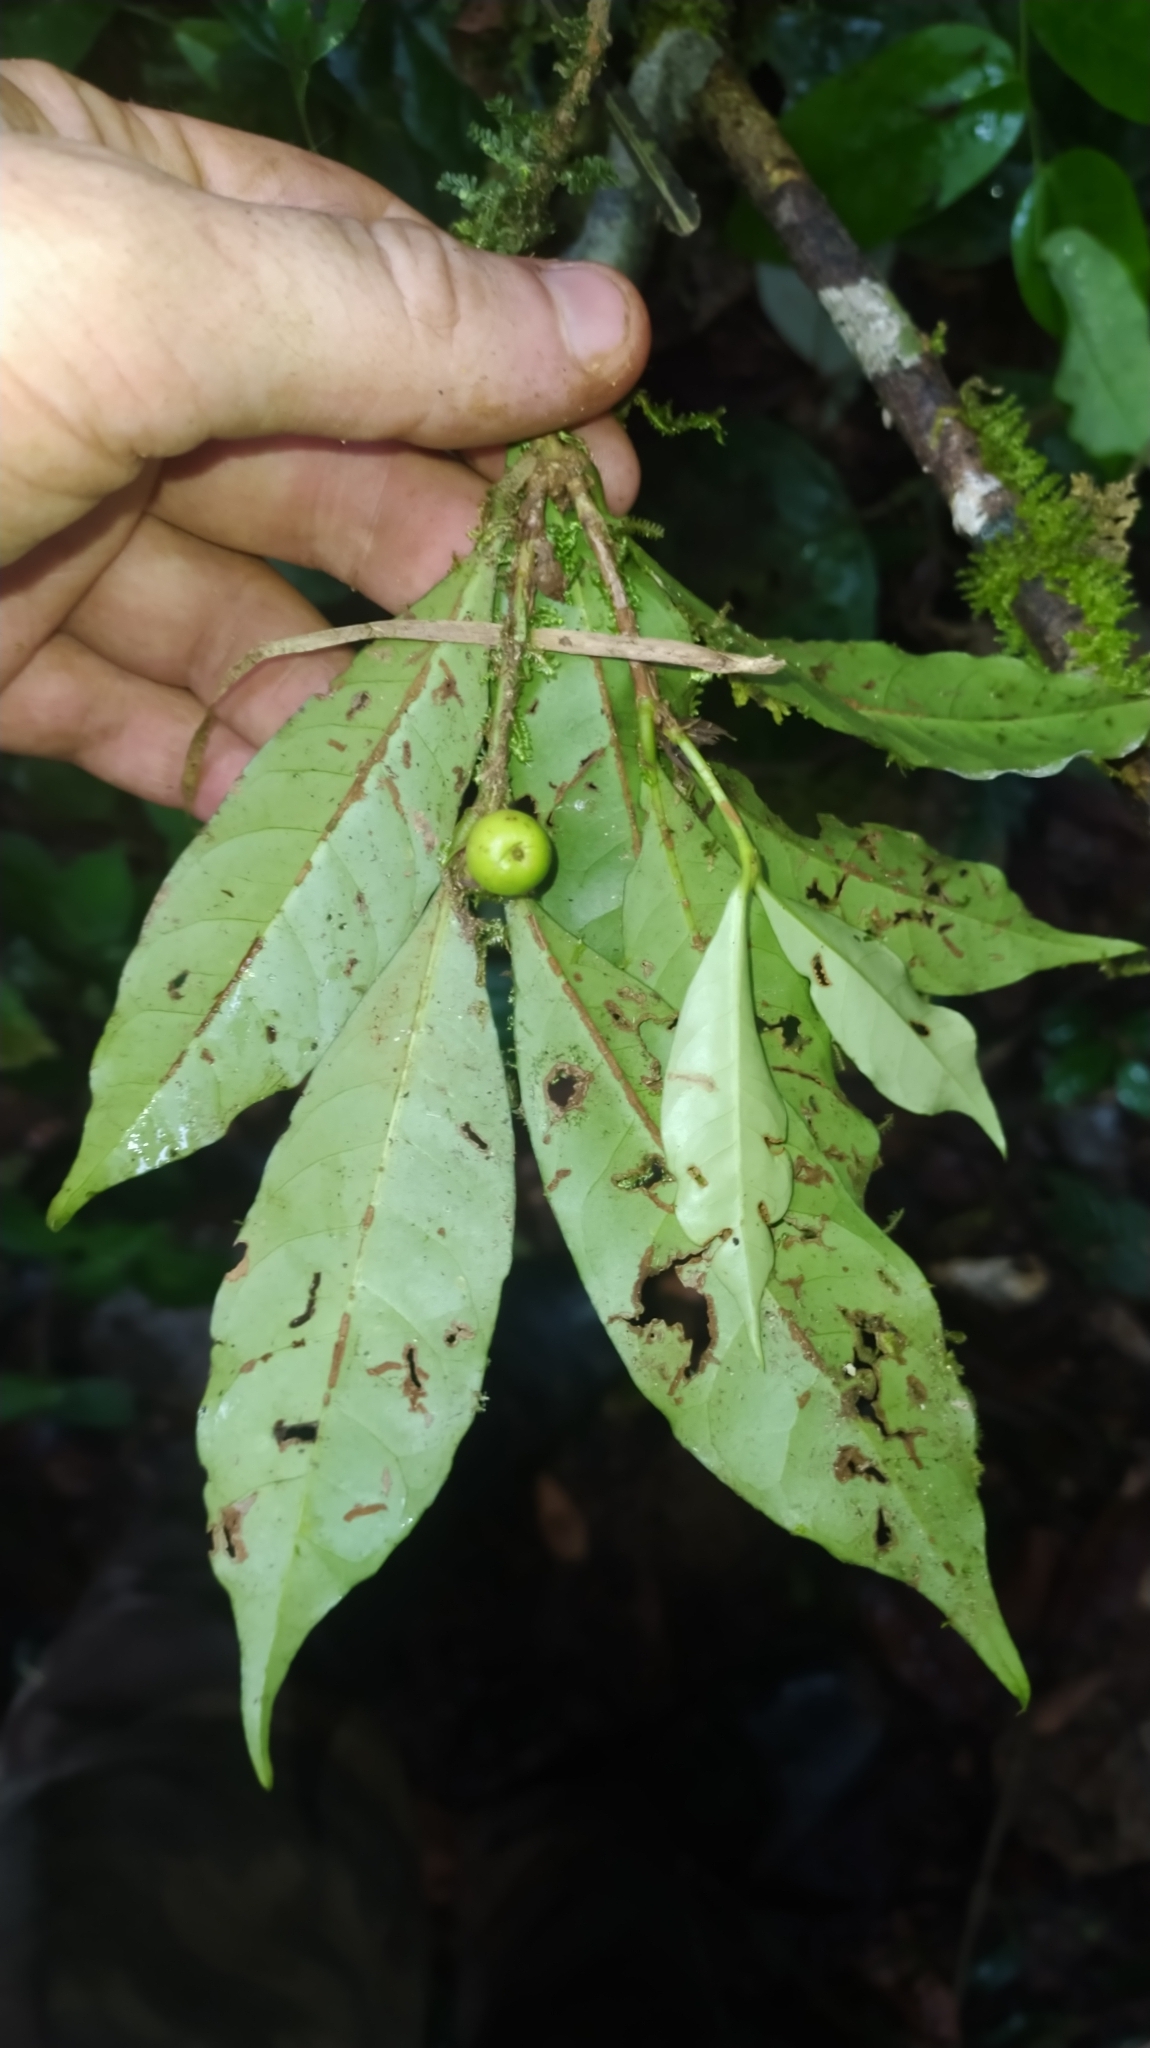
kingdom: Plantae
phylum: Tracheophyta
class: Magnoliopsida
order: Gentianales
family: Rubiaceae
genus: Ixora
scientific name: Ixora aluminicola
